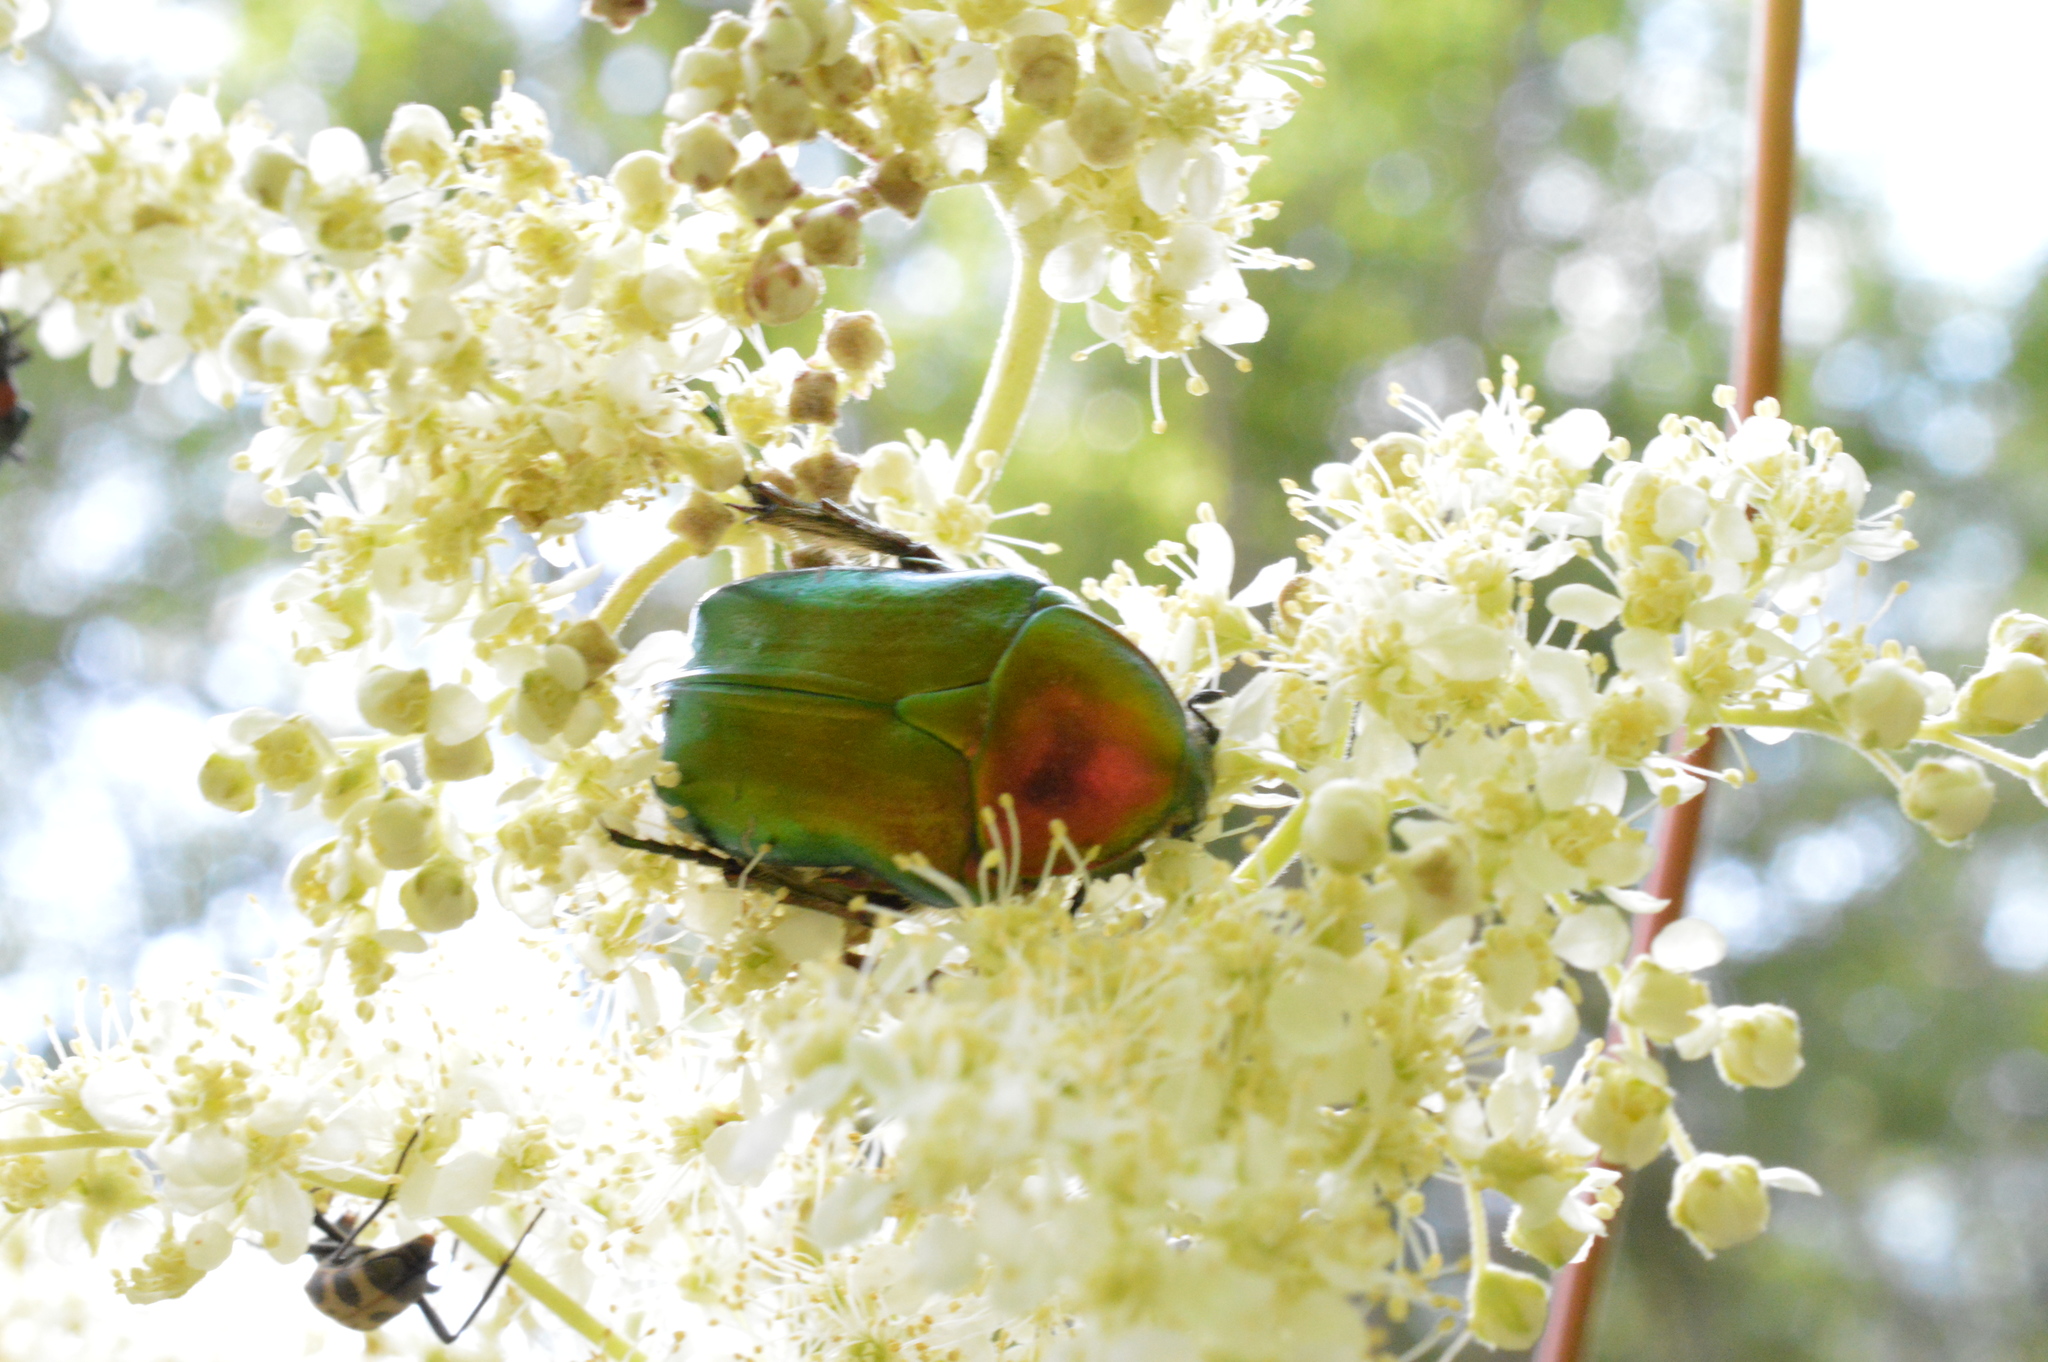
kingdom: Animalia
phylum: Arthropoda
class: Insecta
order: Coleoptera
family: Scarabaeidae
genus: Cetonia
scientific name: Cetonia aurata
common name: Rose chafer
